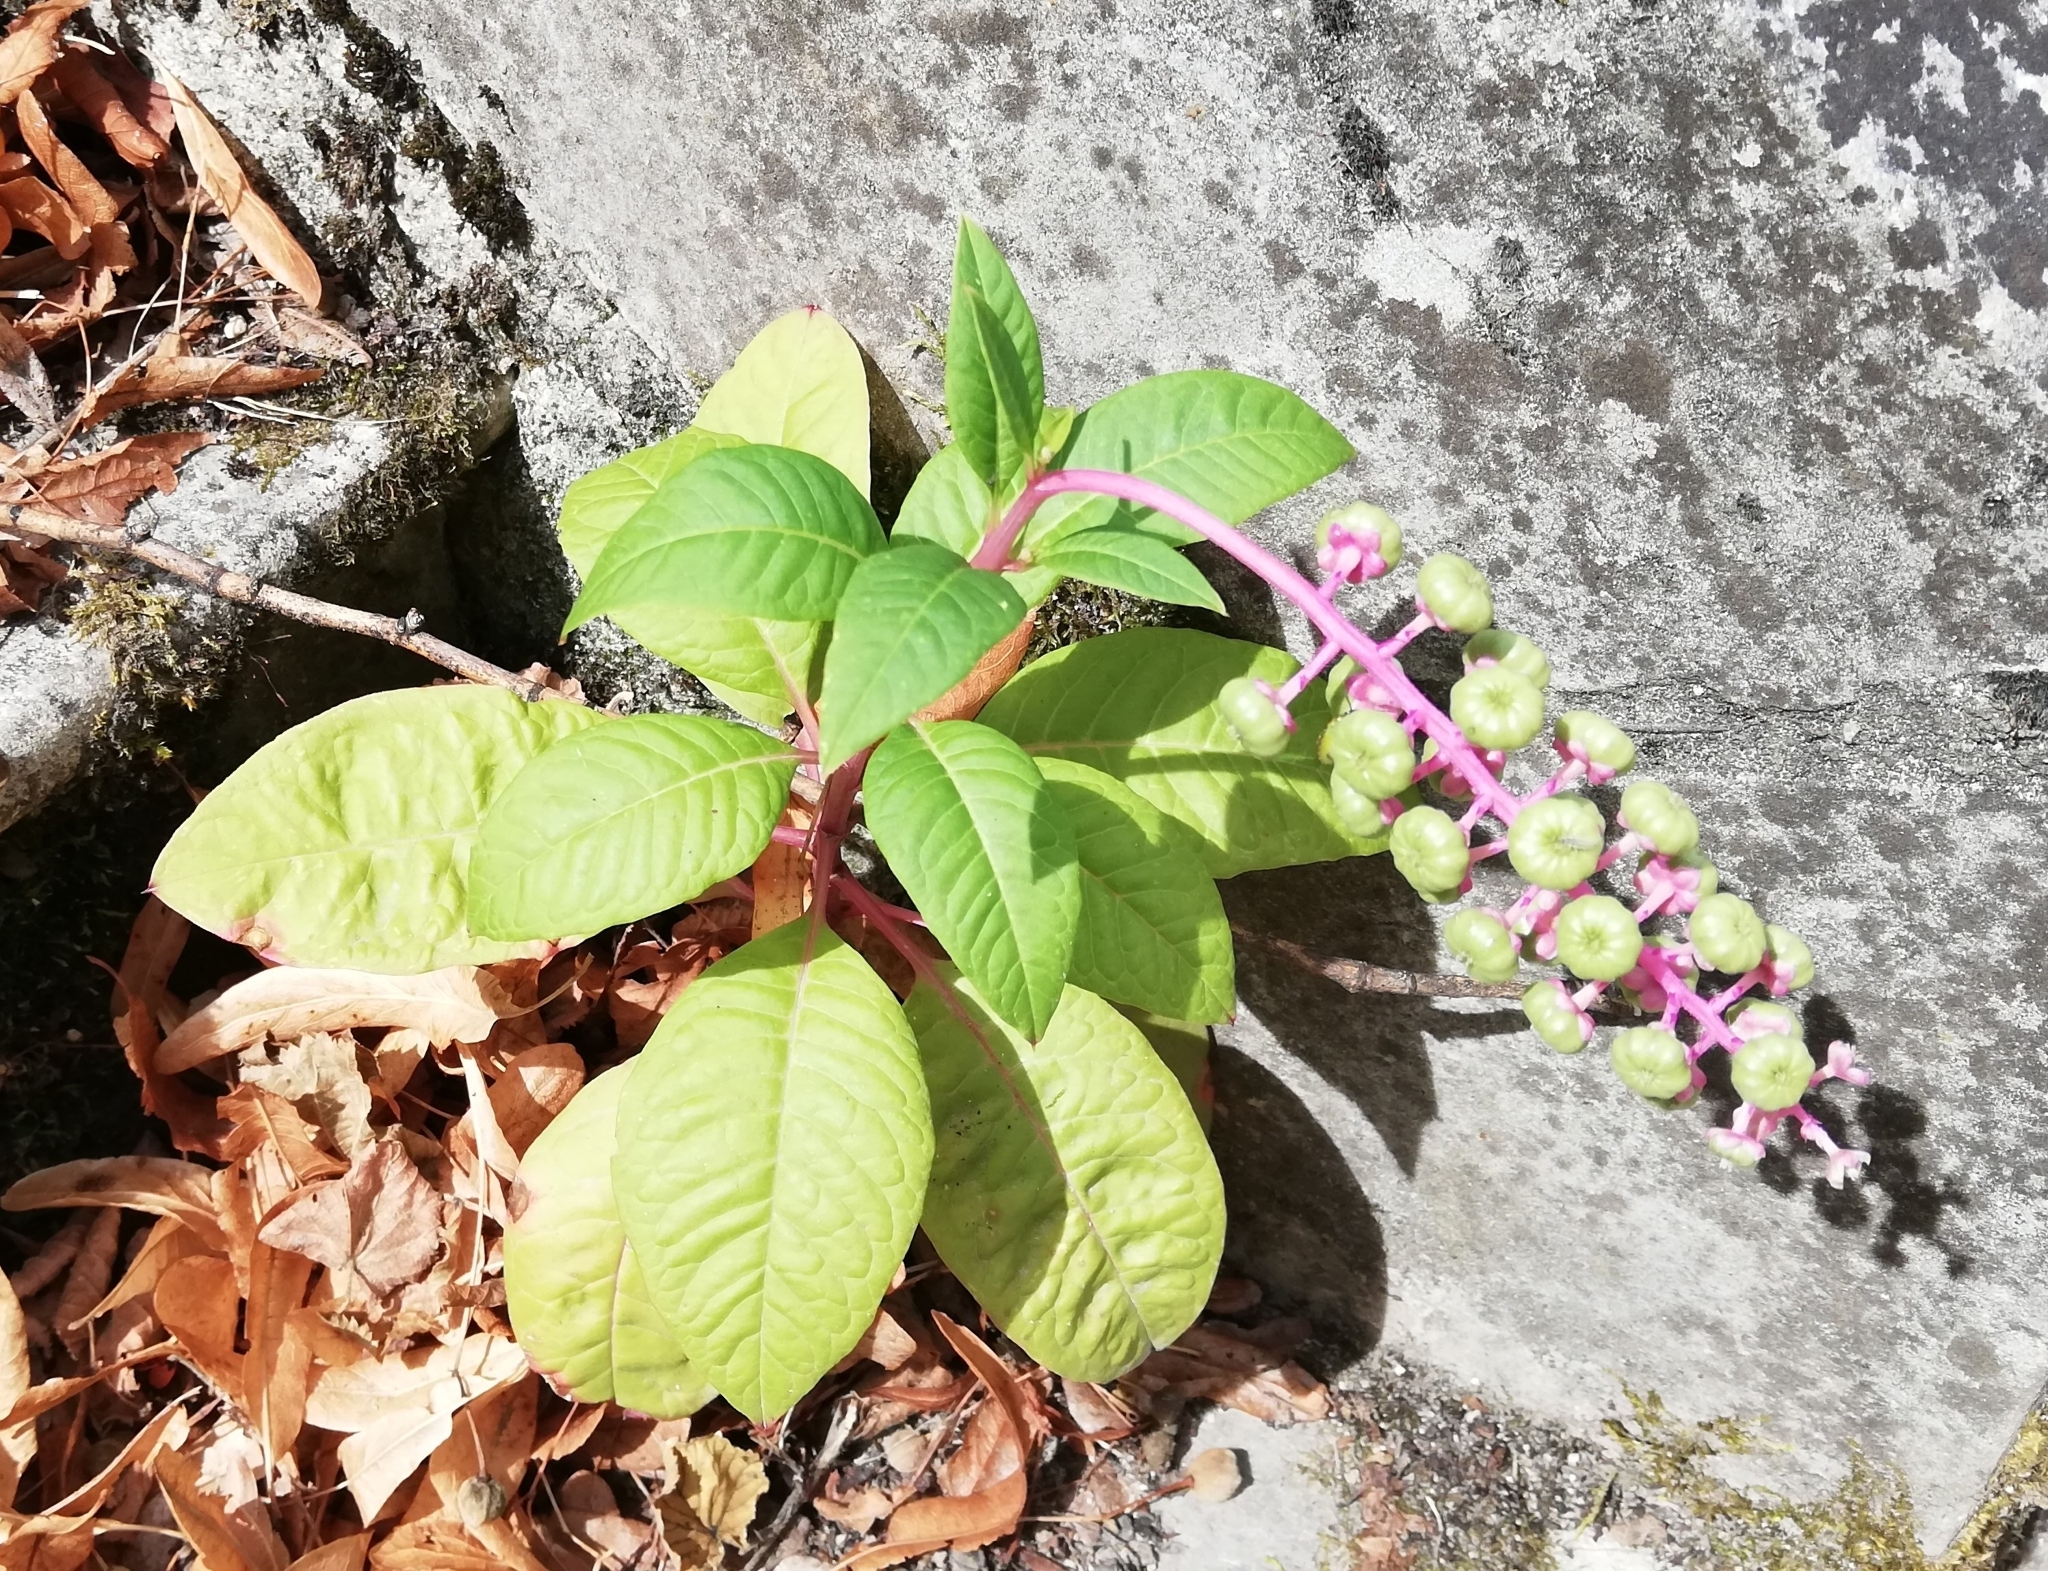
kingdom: Plantae
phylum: Tracheophyta
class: Magnoliopsida
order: Caryophyllales
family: Phytolaccaceae
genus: Phytolacca
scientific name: Phytolacca americana
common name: American pokeweed
